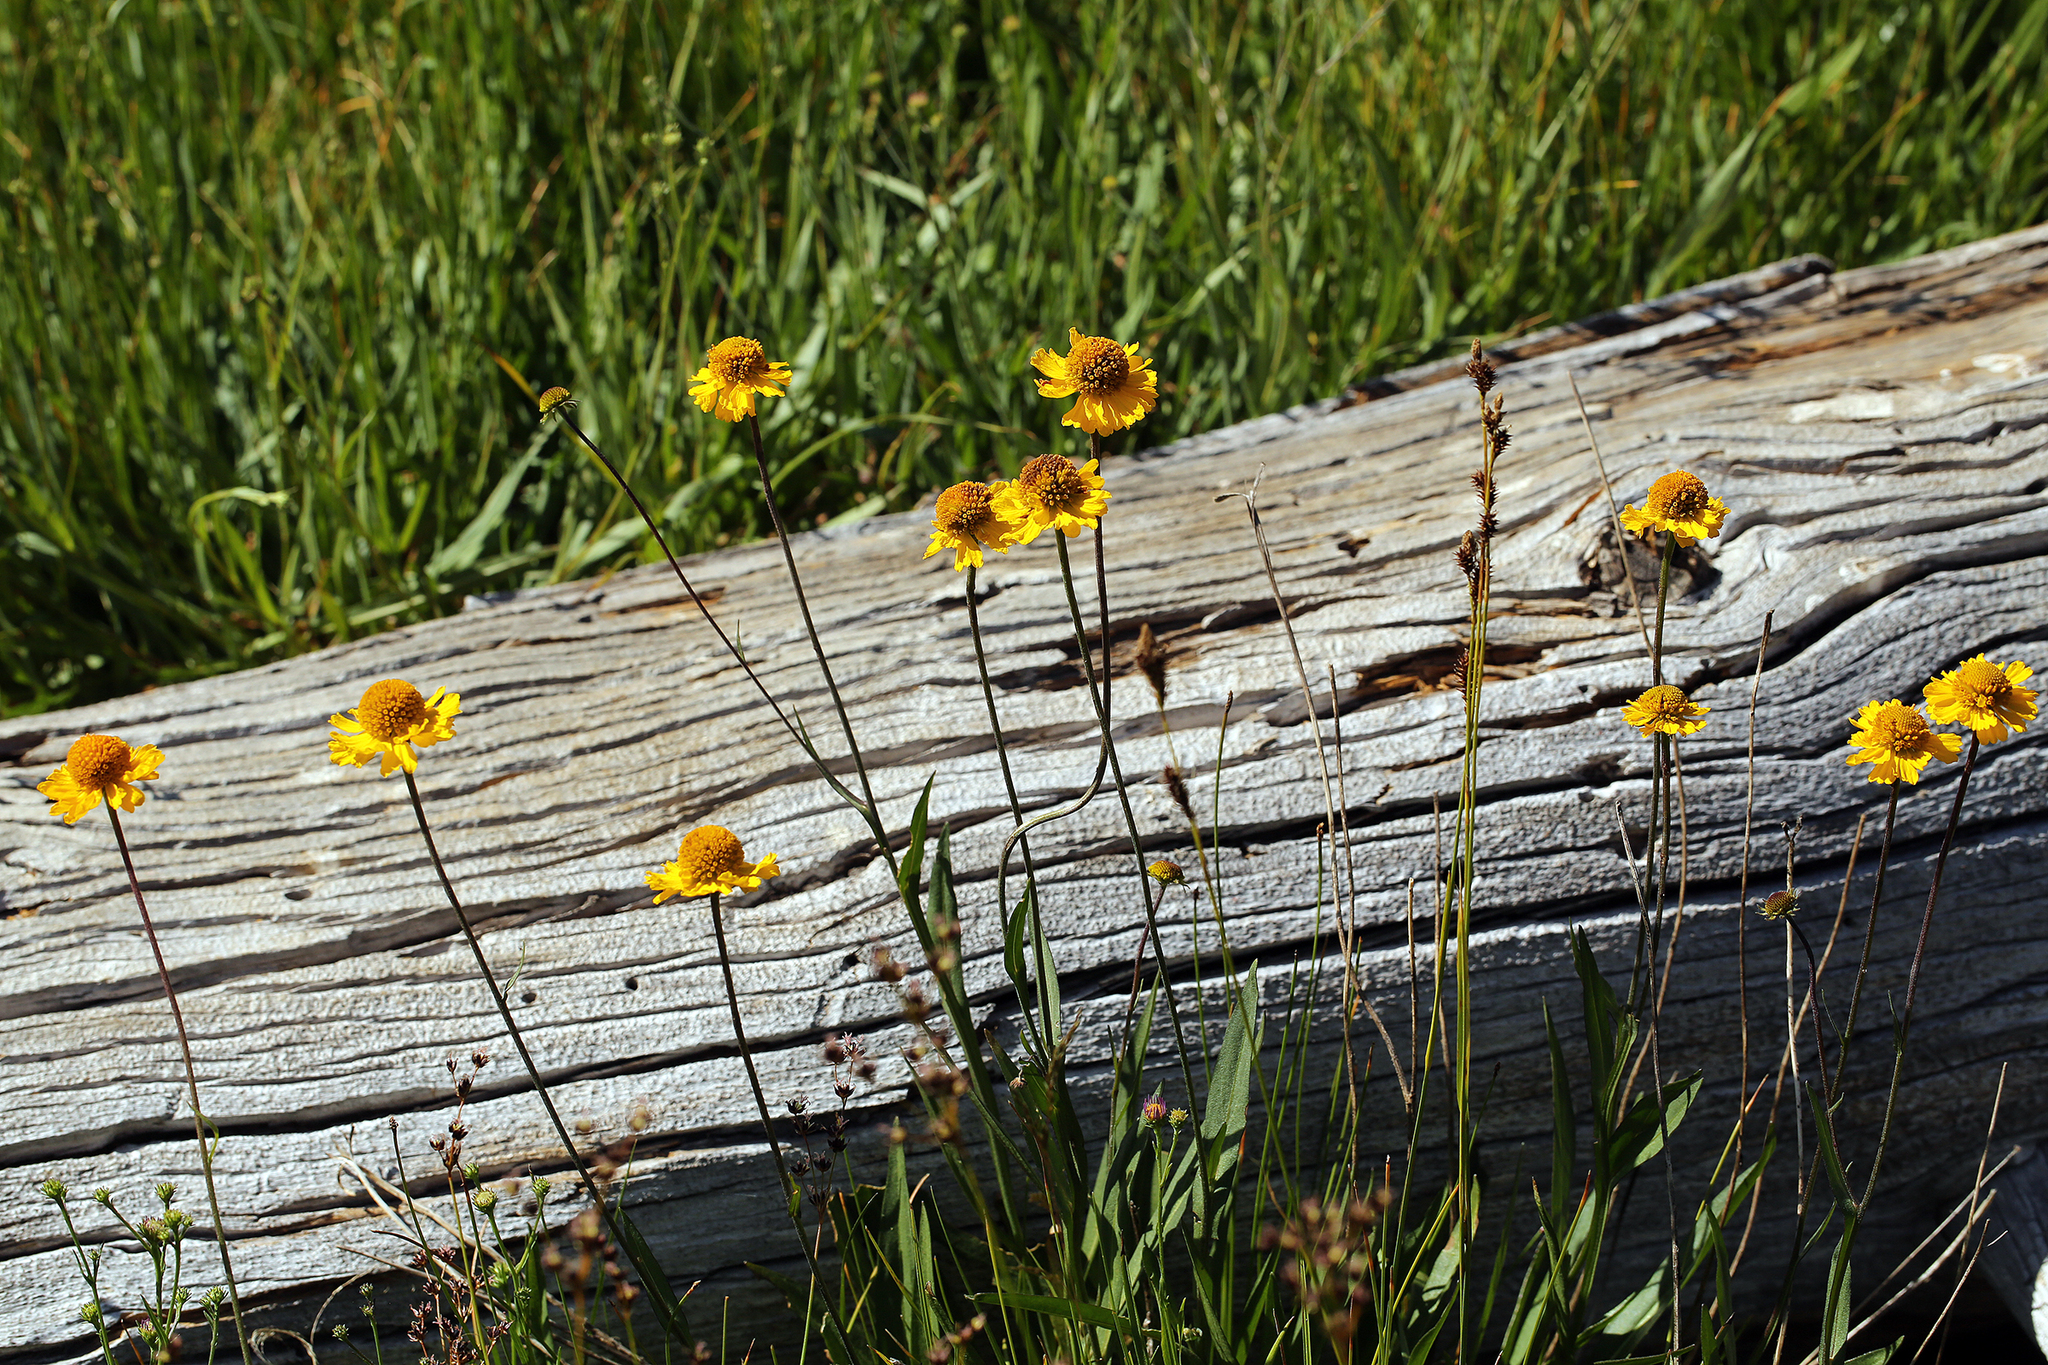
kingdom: Plantae
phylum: Tracheophyta
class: Magnoliopsida
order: Asterales
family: Asteraceae
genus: Helenium
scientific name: Helenium bigelovii
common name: Bigelow's sneezeweed
